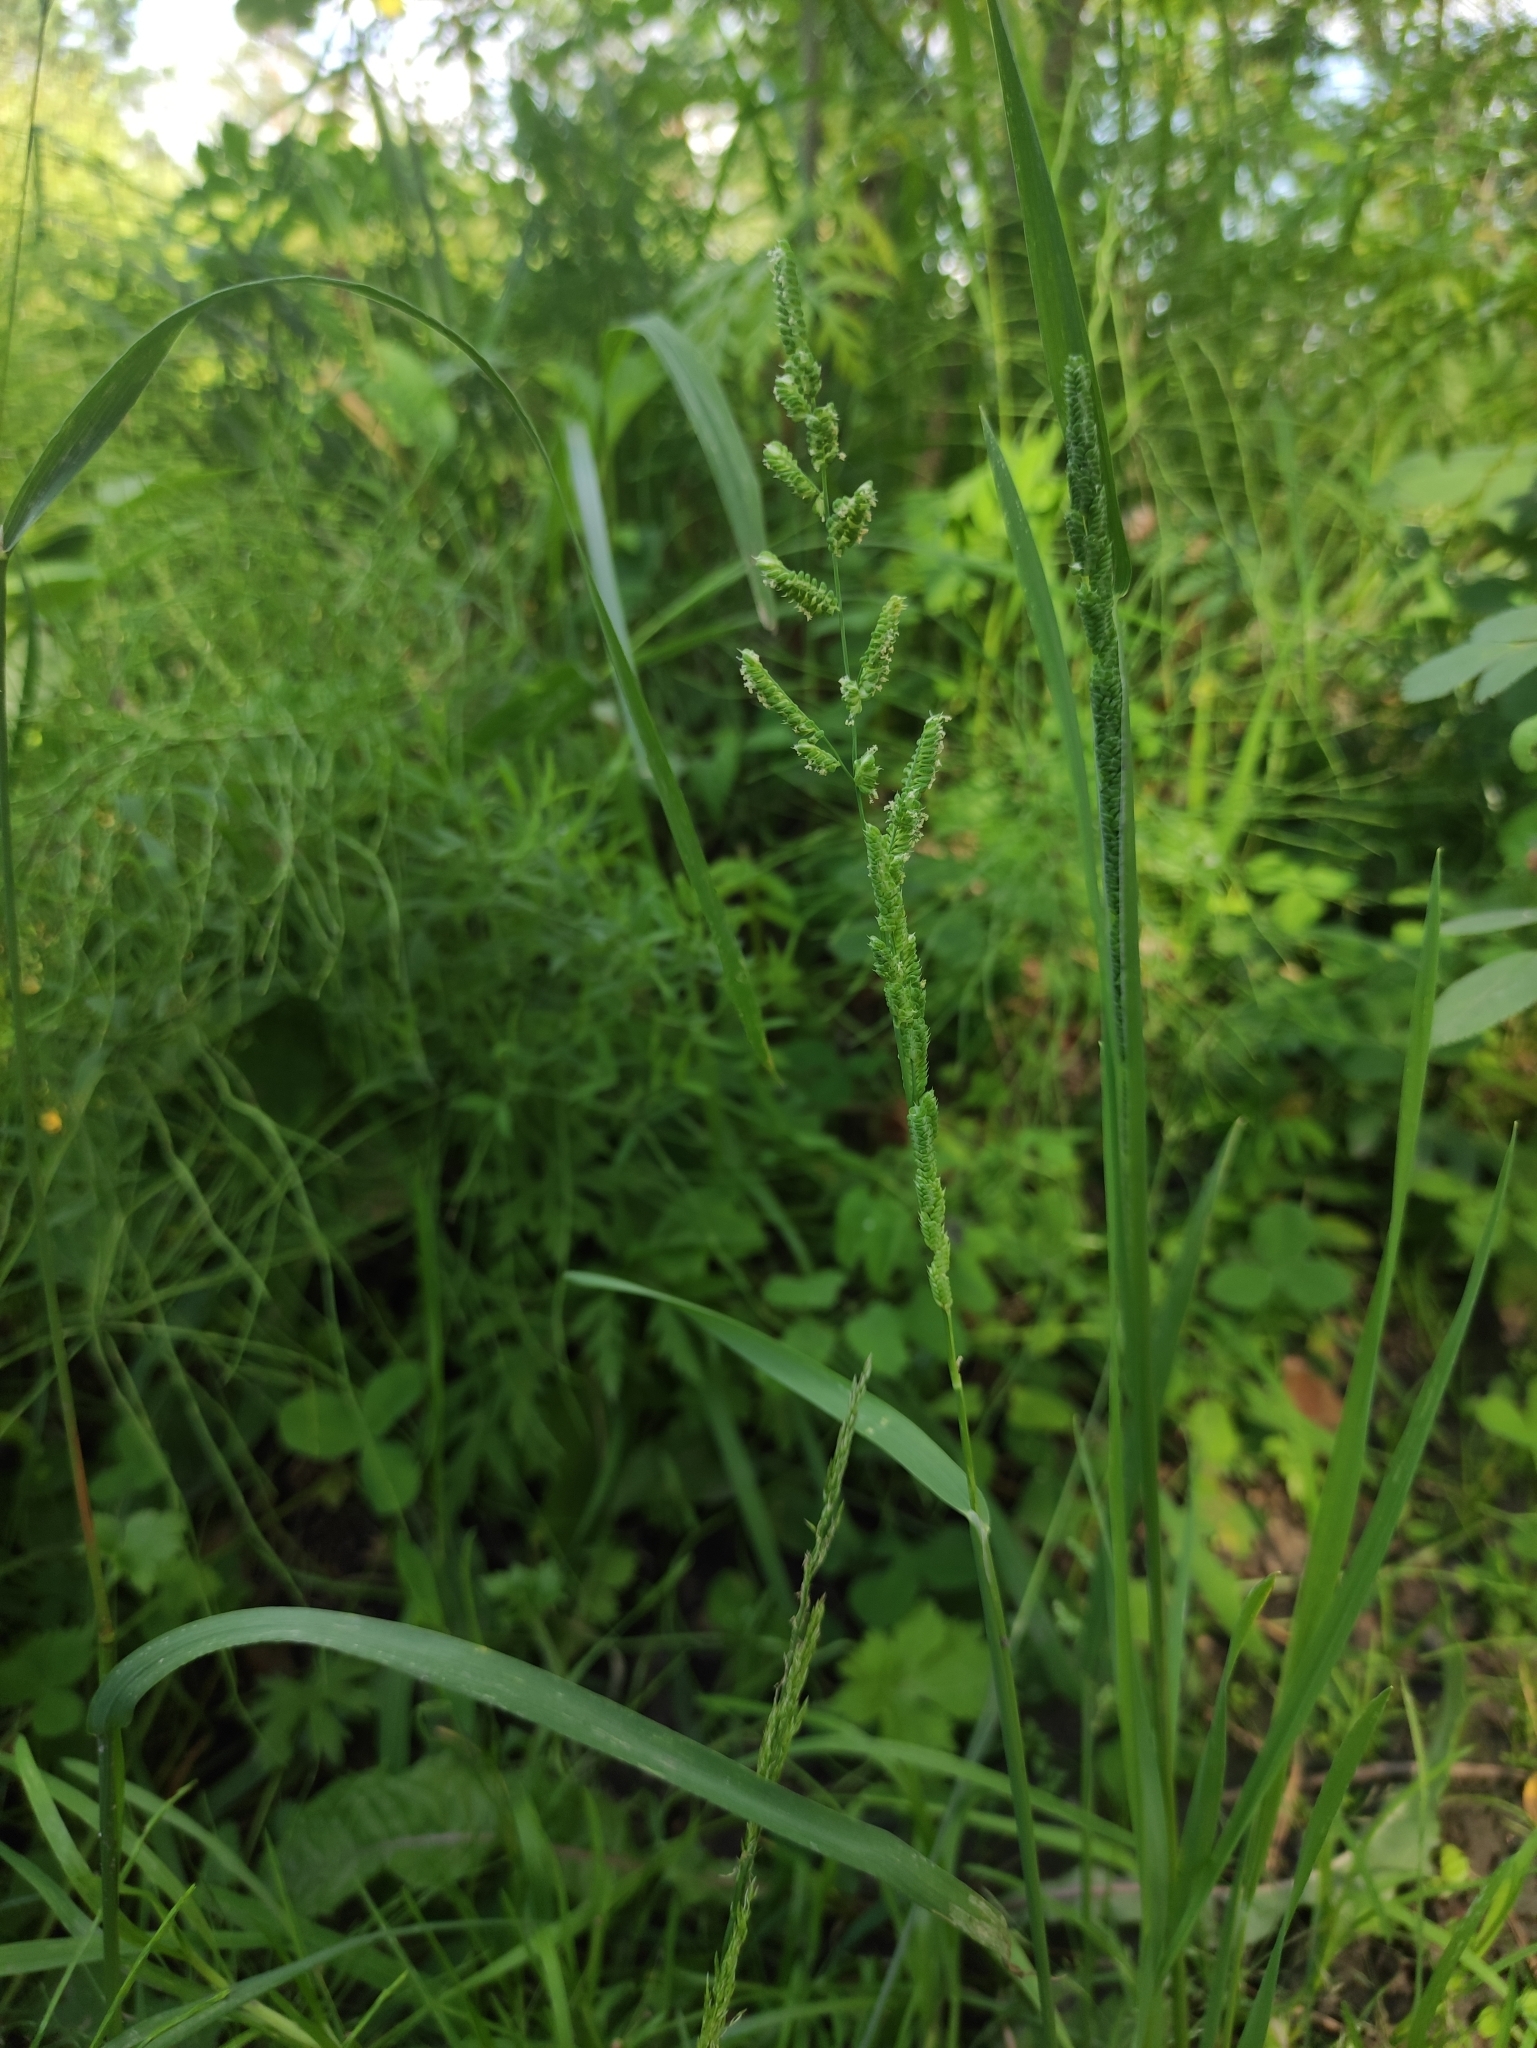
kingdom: Plantae
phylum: Tracheophyta
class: Liliopsida
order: Poales
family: Poaceae
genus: Beckmannia
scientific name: Beckmannia syzigachne
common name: American slough-grass
